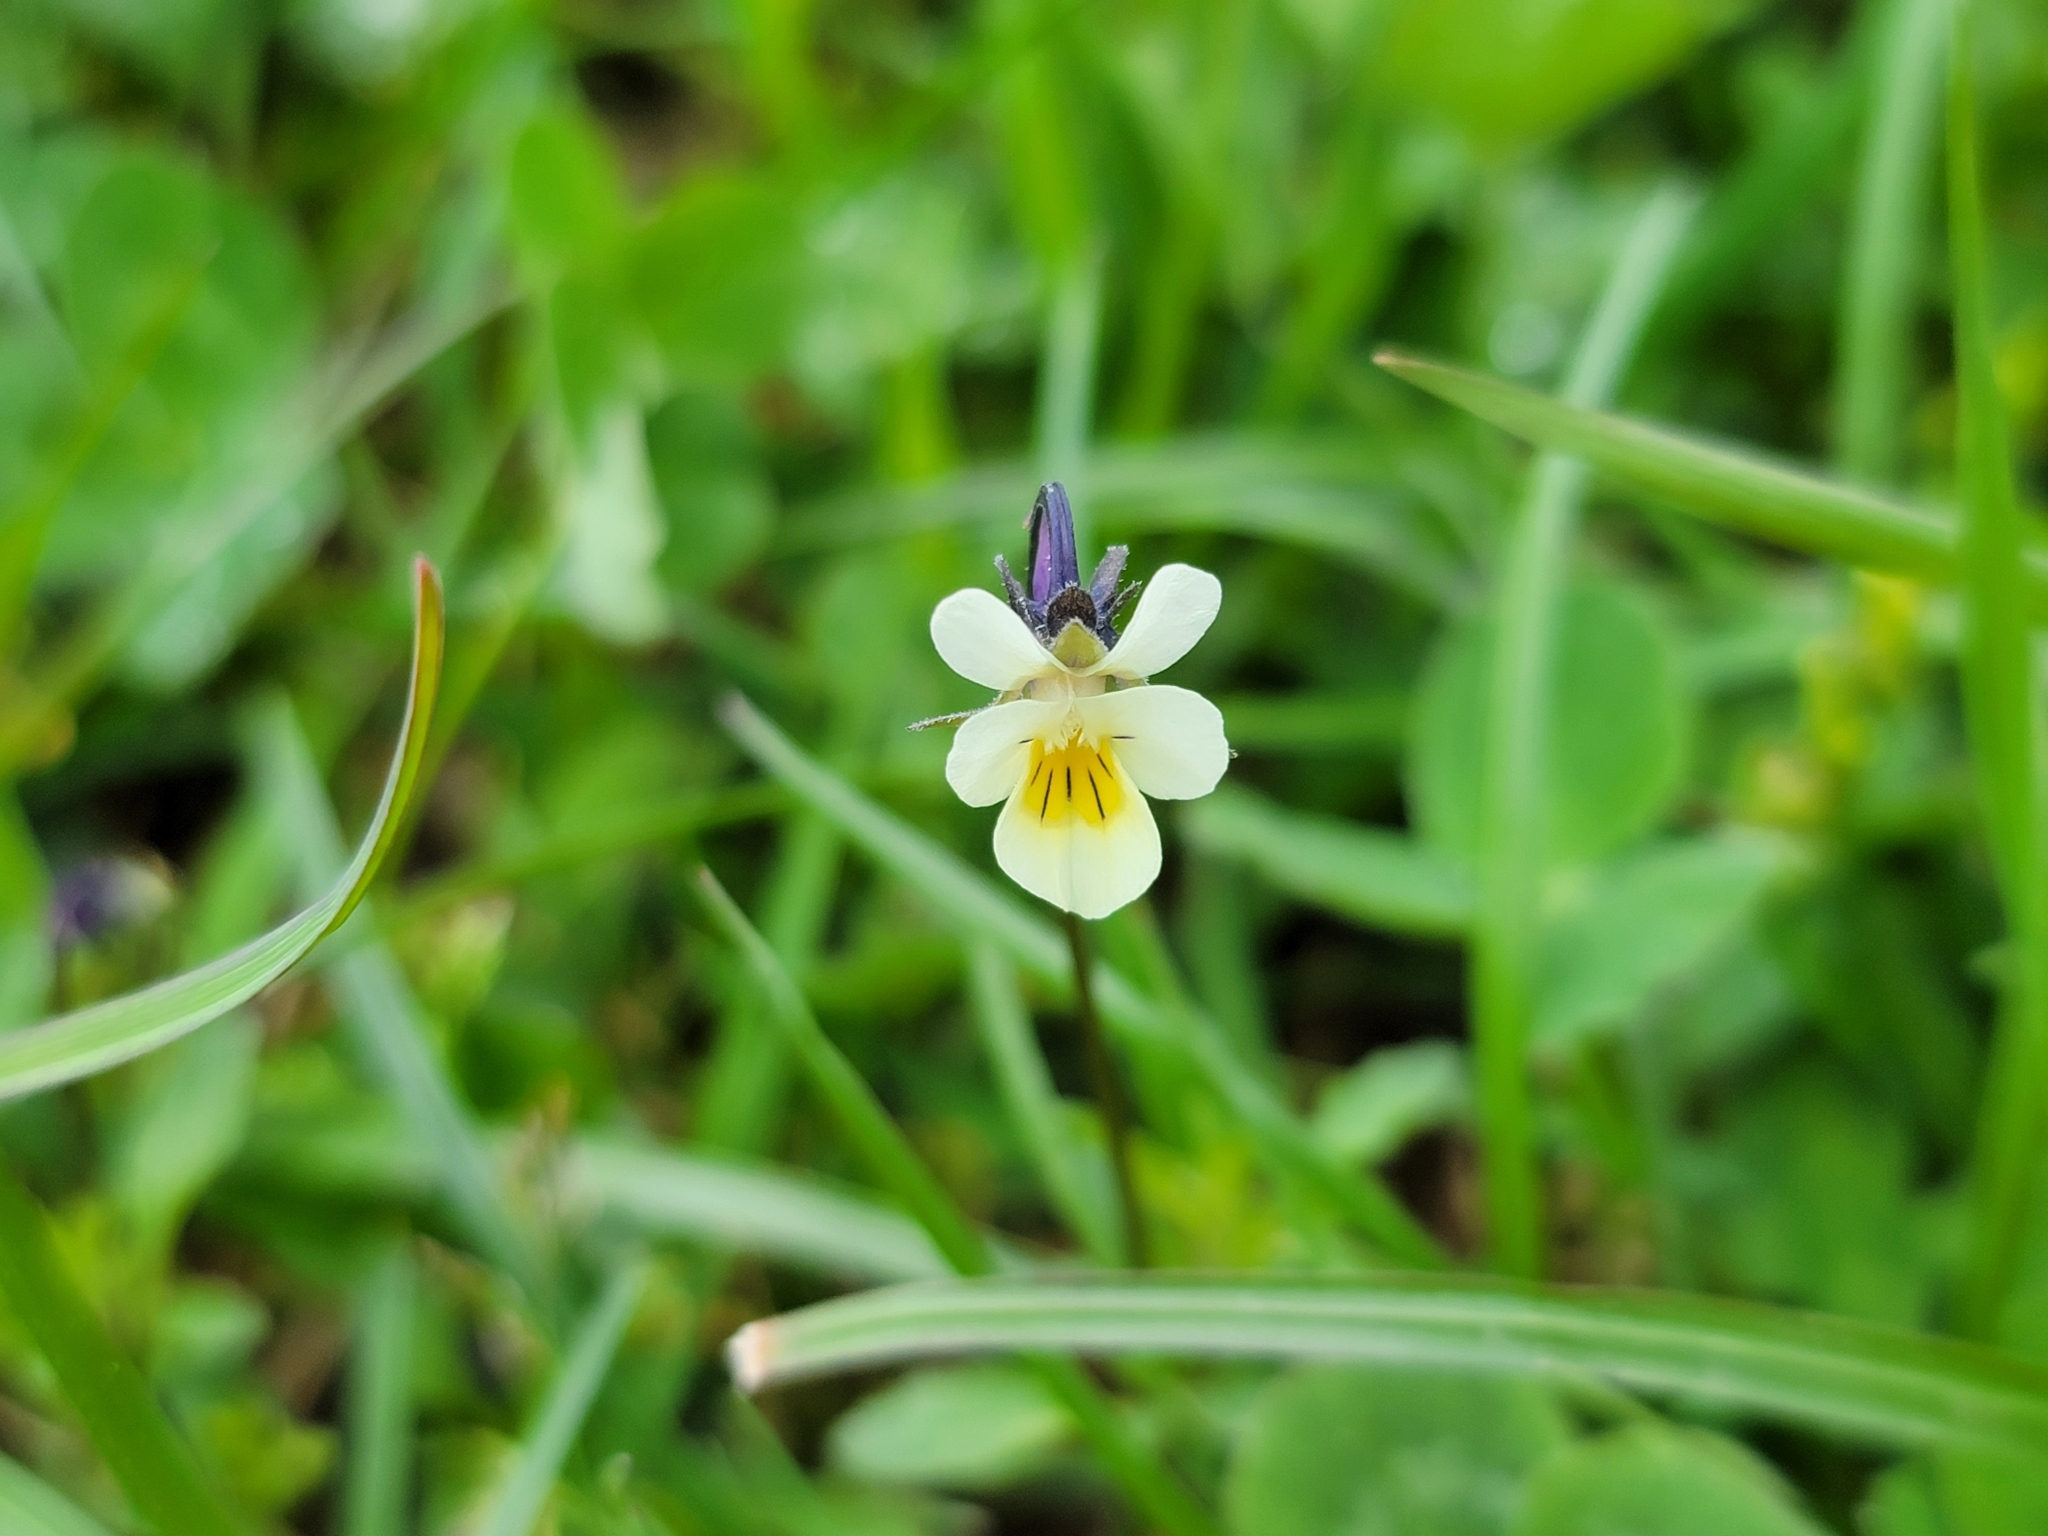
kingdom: Plantae
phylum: Tracheophyta
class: Magnoliopsida
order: Malpighiales
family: Violaceae
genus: Viola
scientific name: Viola arvensis
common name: Field pansy
